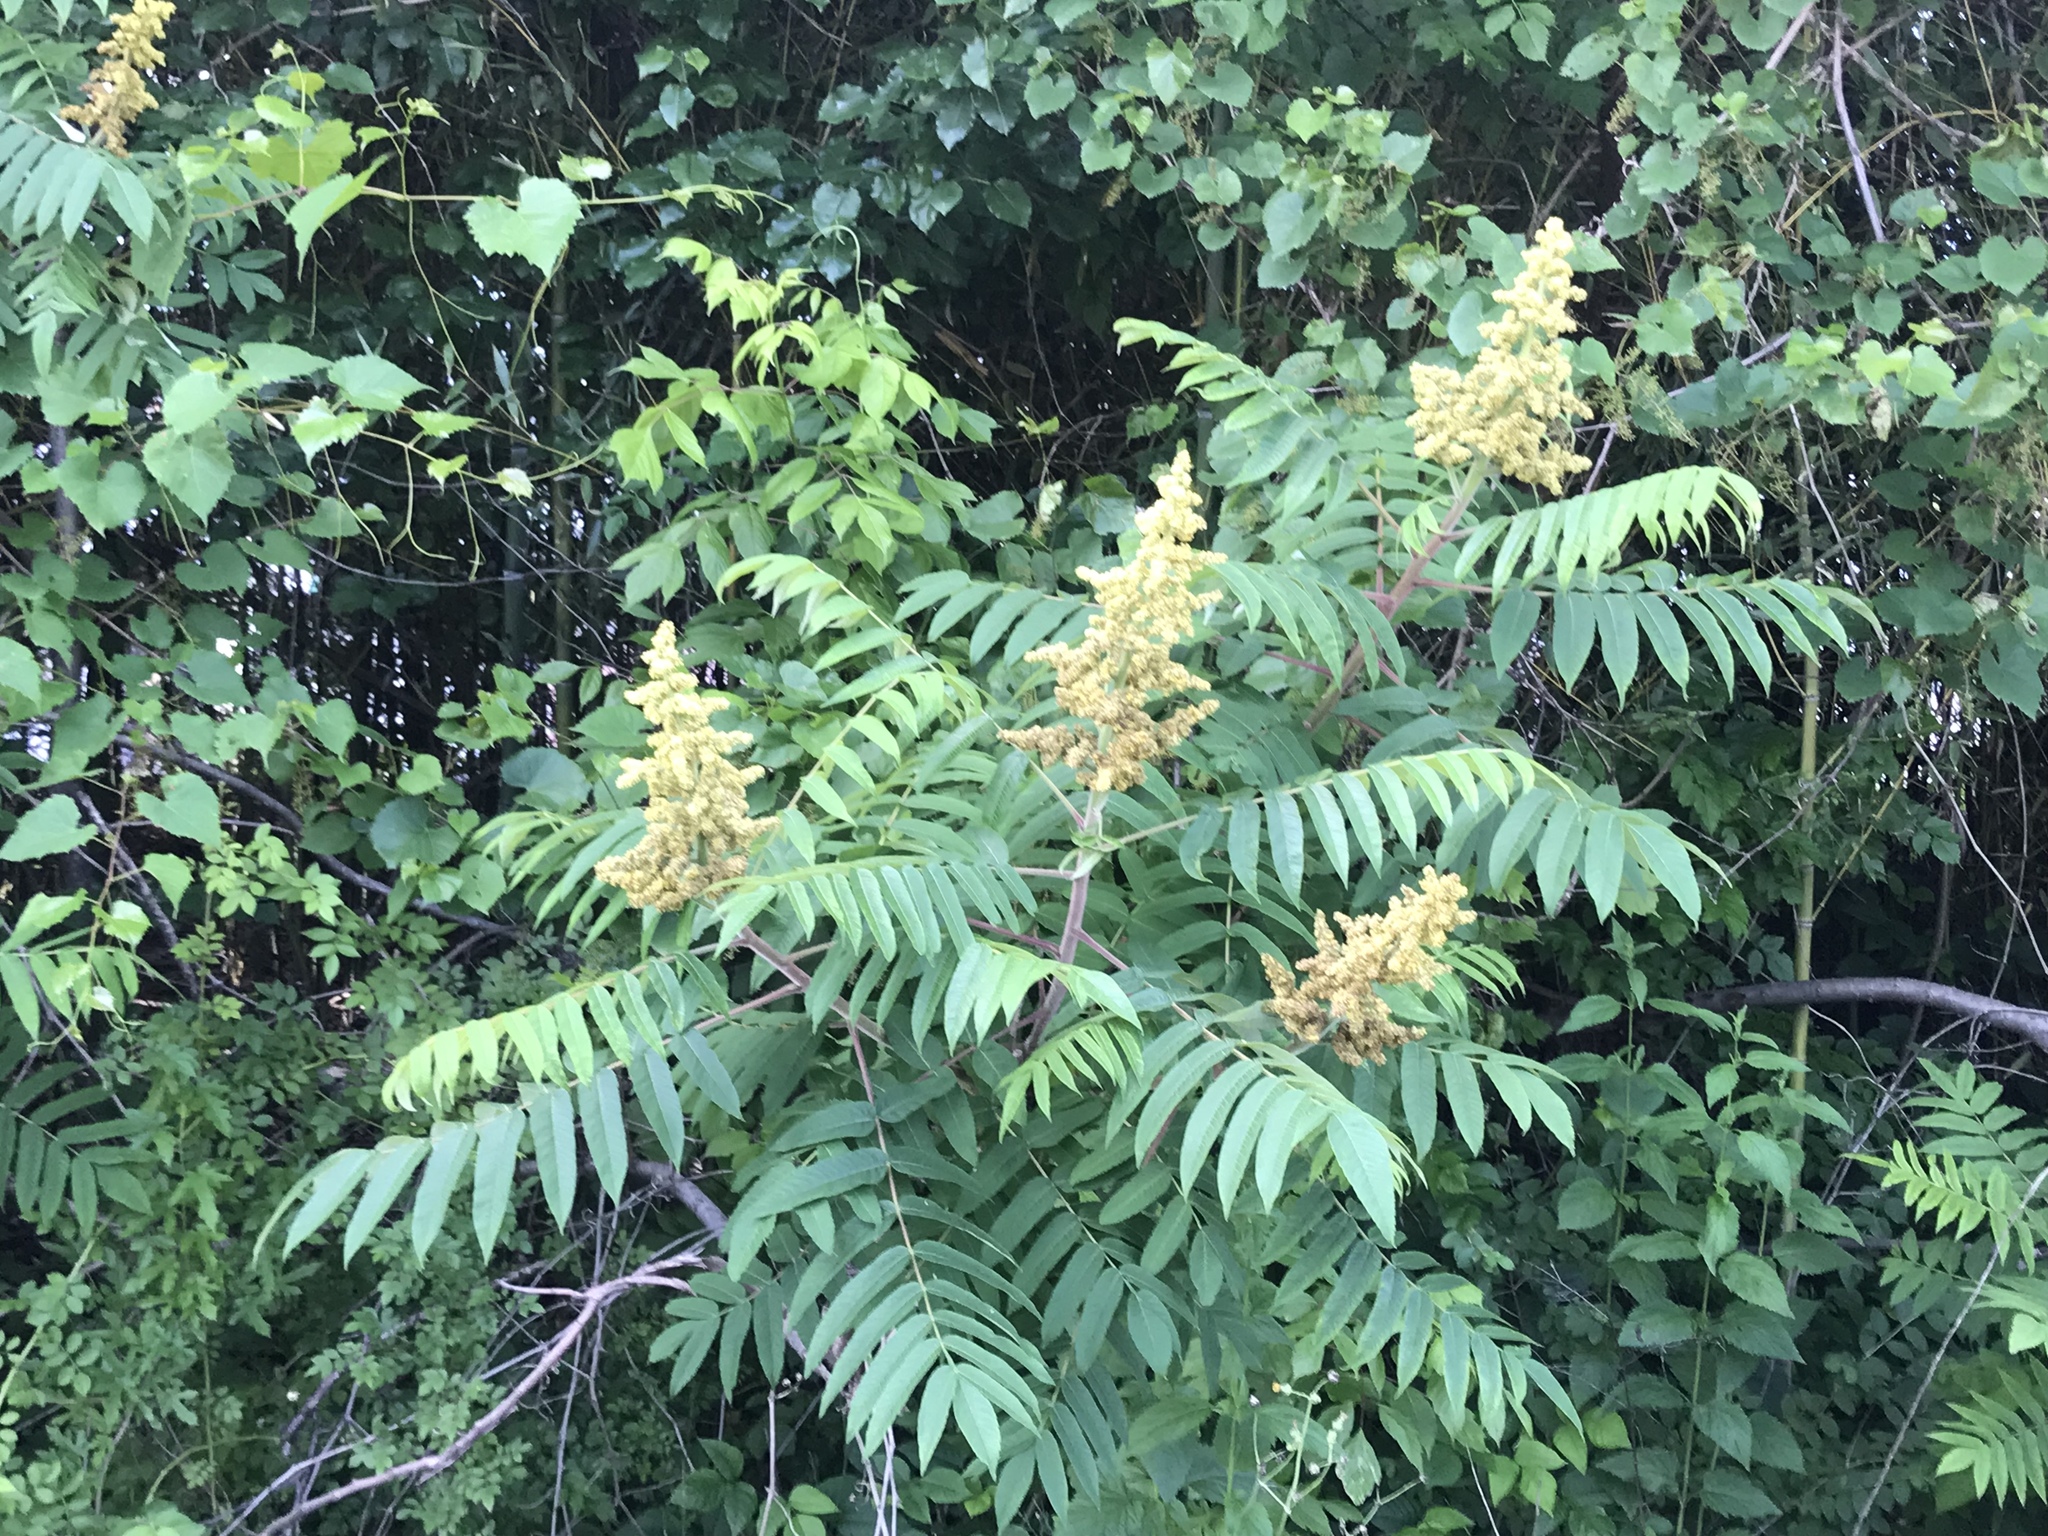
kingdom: Plantae
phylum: Tracheophyta
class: Magnoliopsida
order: Sapindales
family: Anacardiaceae
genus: Rhus
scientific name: Rhus typhina
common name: Staghorn sumac
